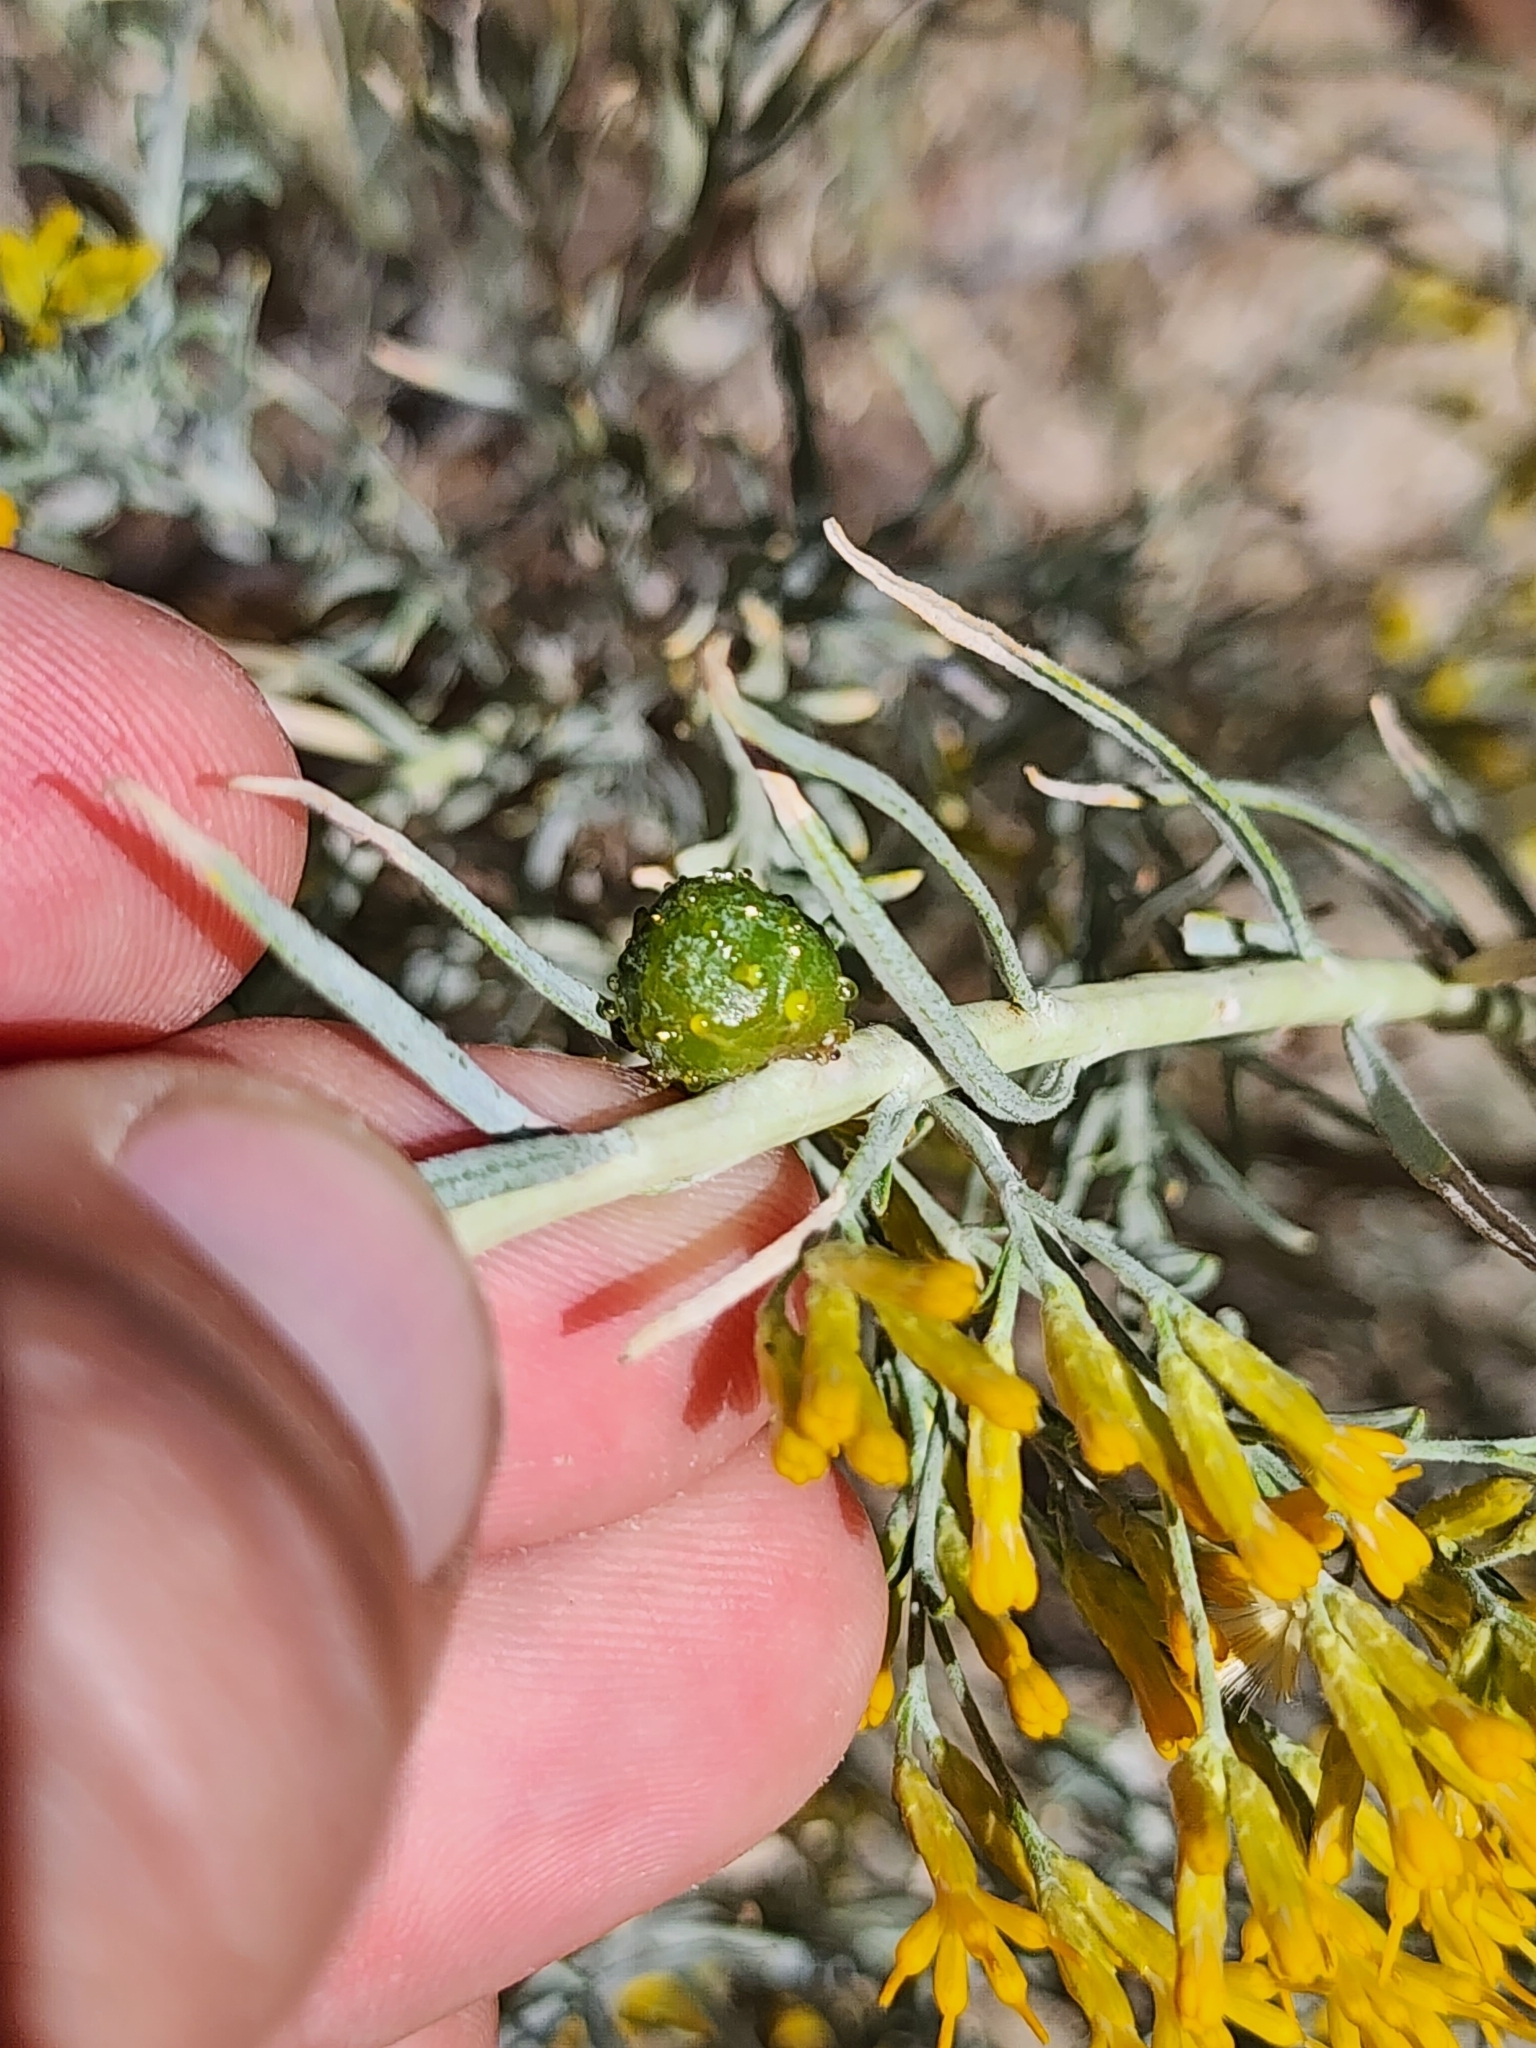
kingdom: Animalia
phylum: Arthropoda
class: Insecta
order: Diptera
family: Tephritidae
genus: Aciurina
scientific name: Aciurina trixa
